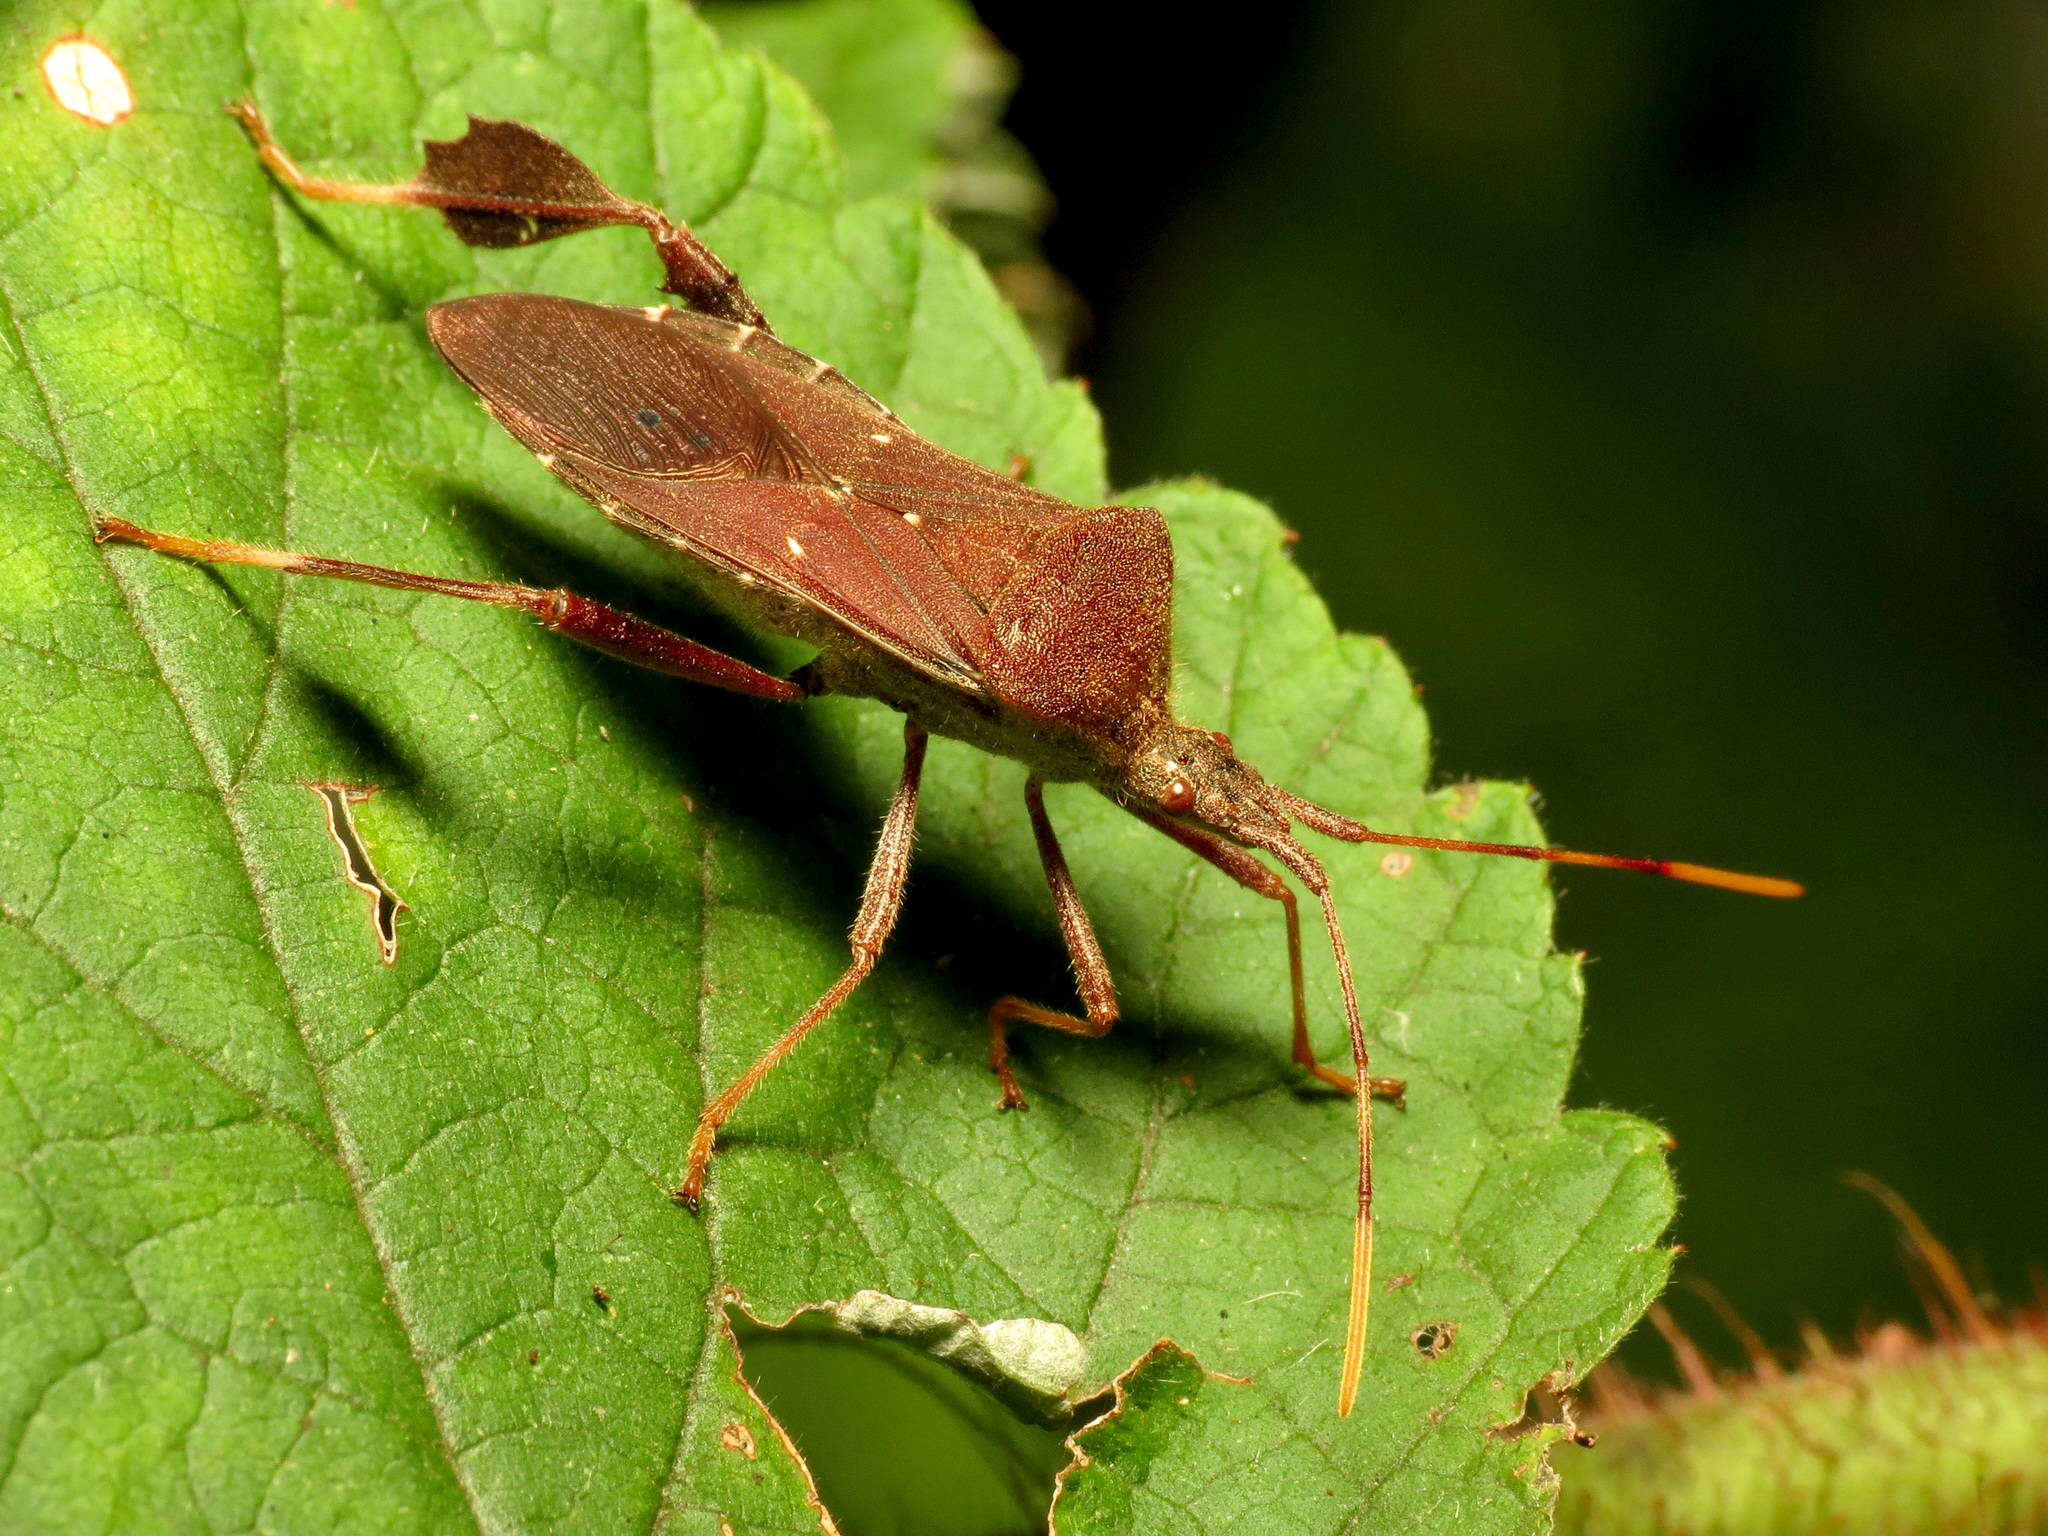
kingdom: Animalia
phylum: Arthropoda
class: Insecta
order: Hemiptera
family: Coreidae
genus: Leptoglossus
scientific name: Leptoglossus oppositus
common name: Northern leaf-footed bug
